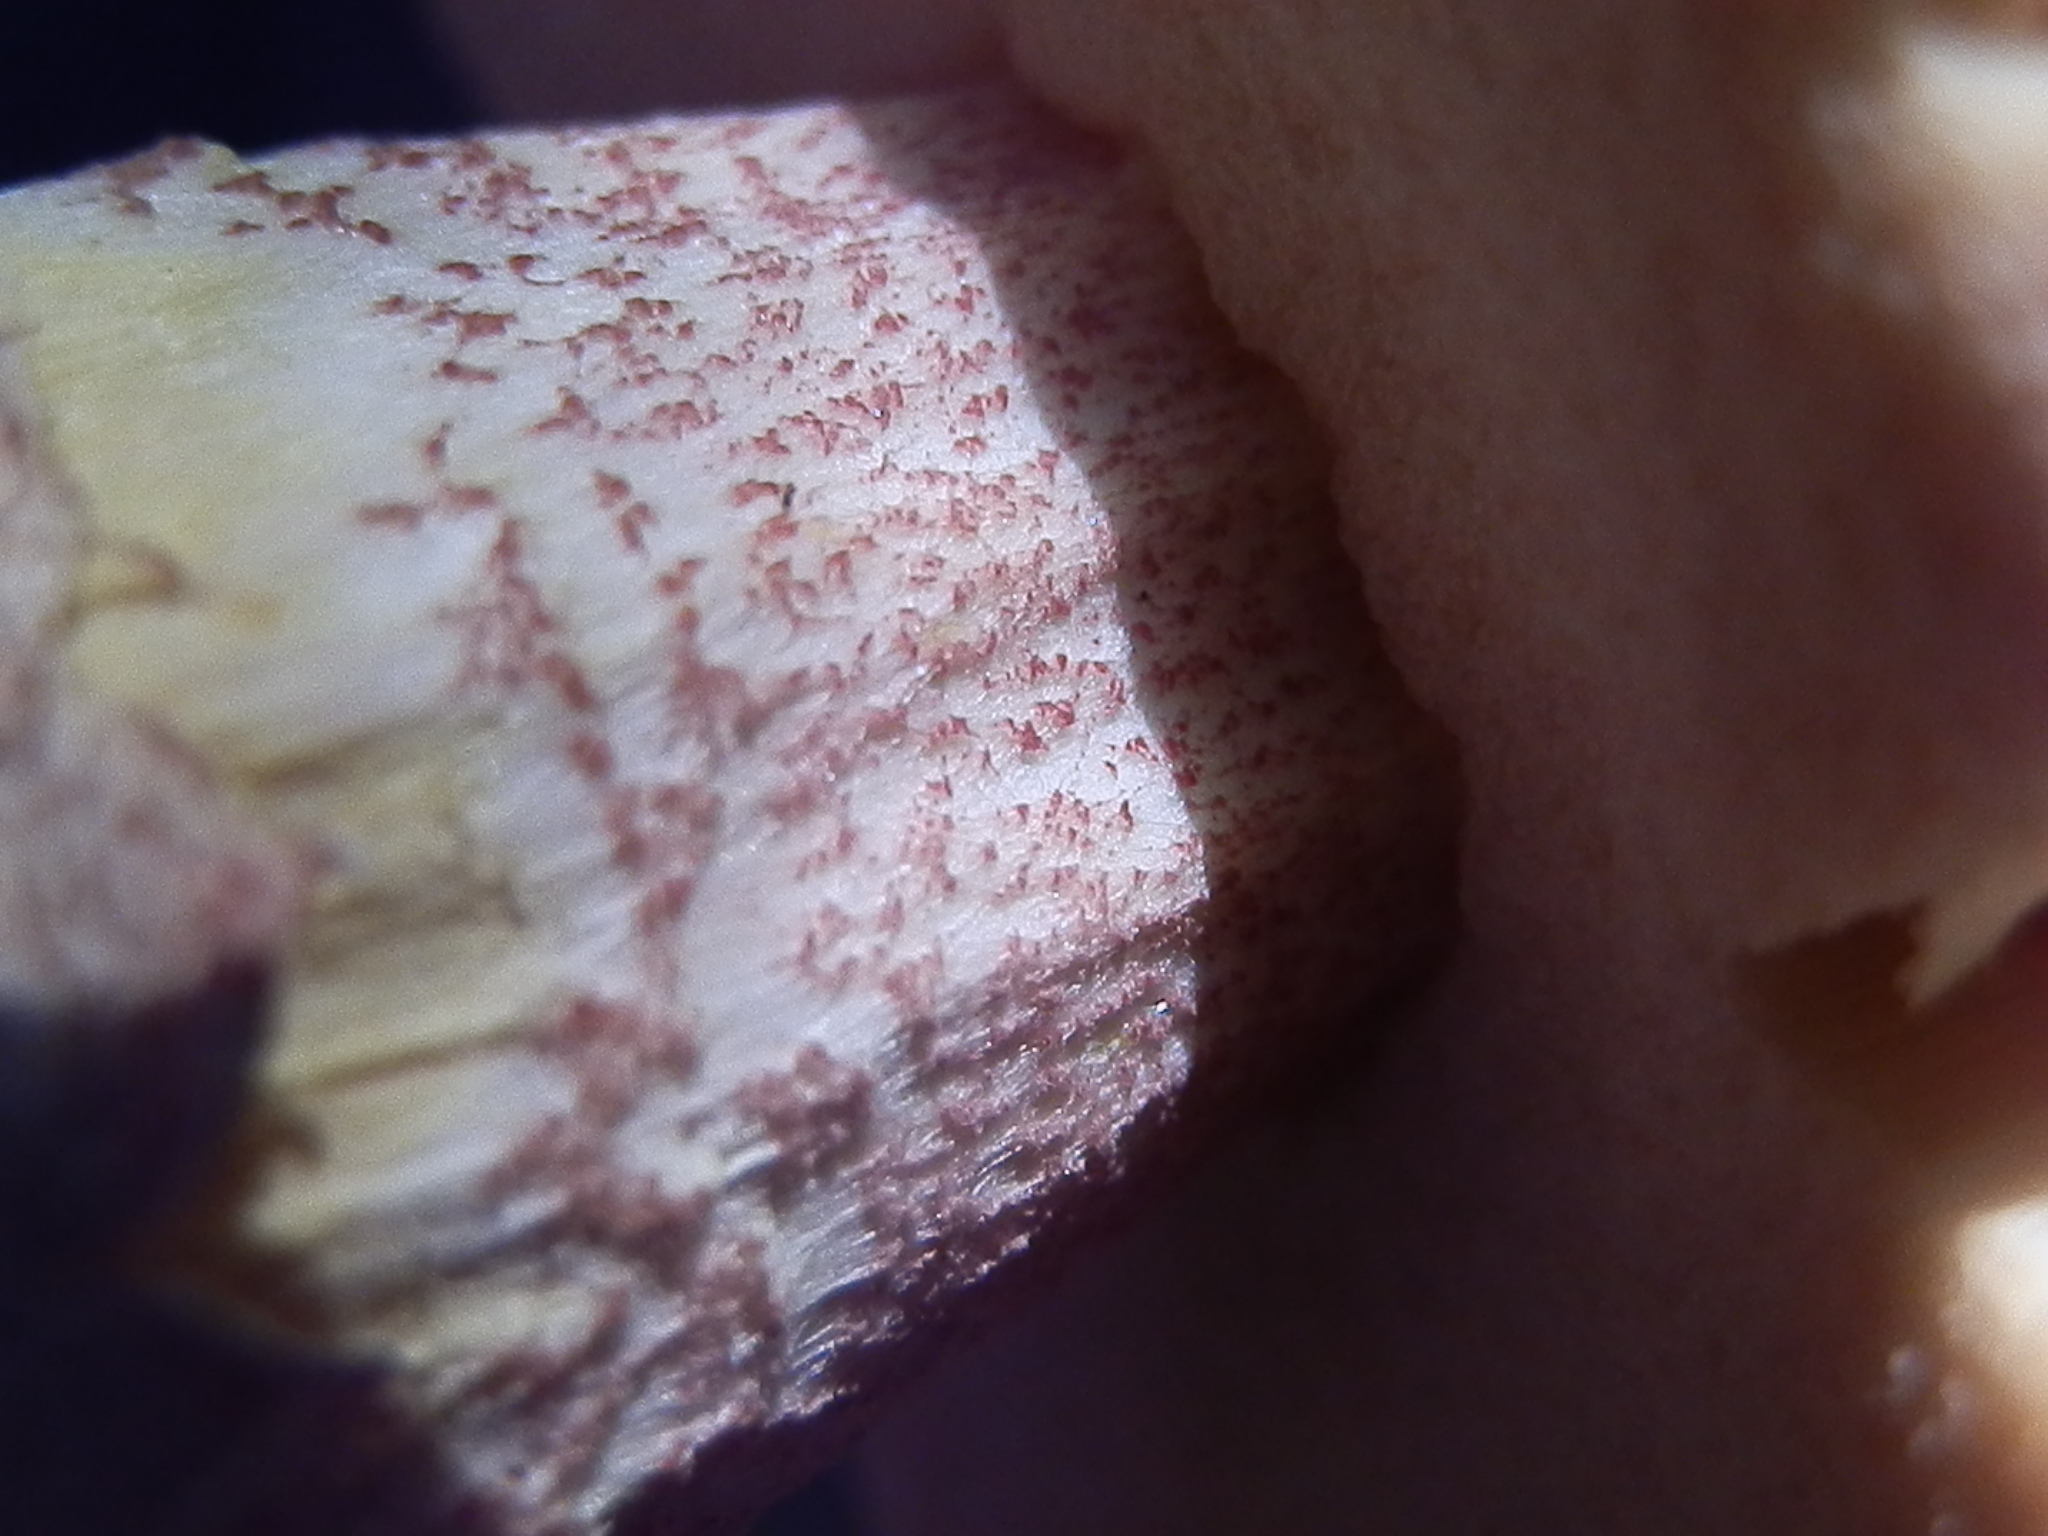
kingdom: Fungi
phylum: Basidiomycota
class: Agaricomycetes
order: Boletales
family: Boletaceae
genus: Harrya
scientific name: Harrya chromipes
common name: Chrome-footed bolete
